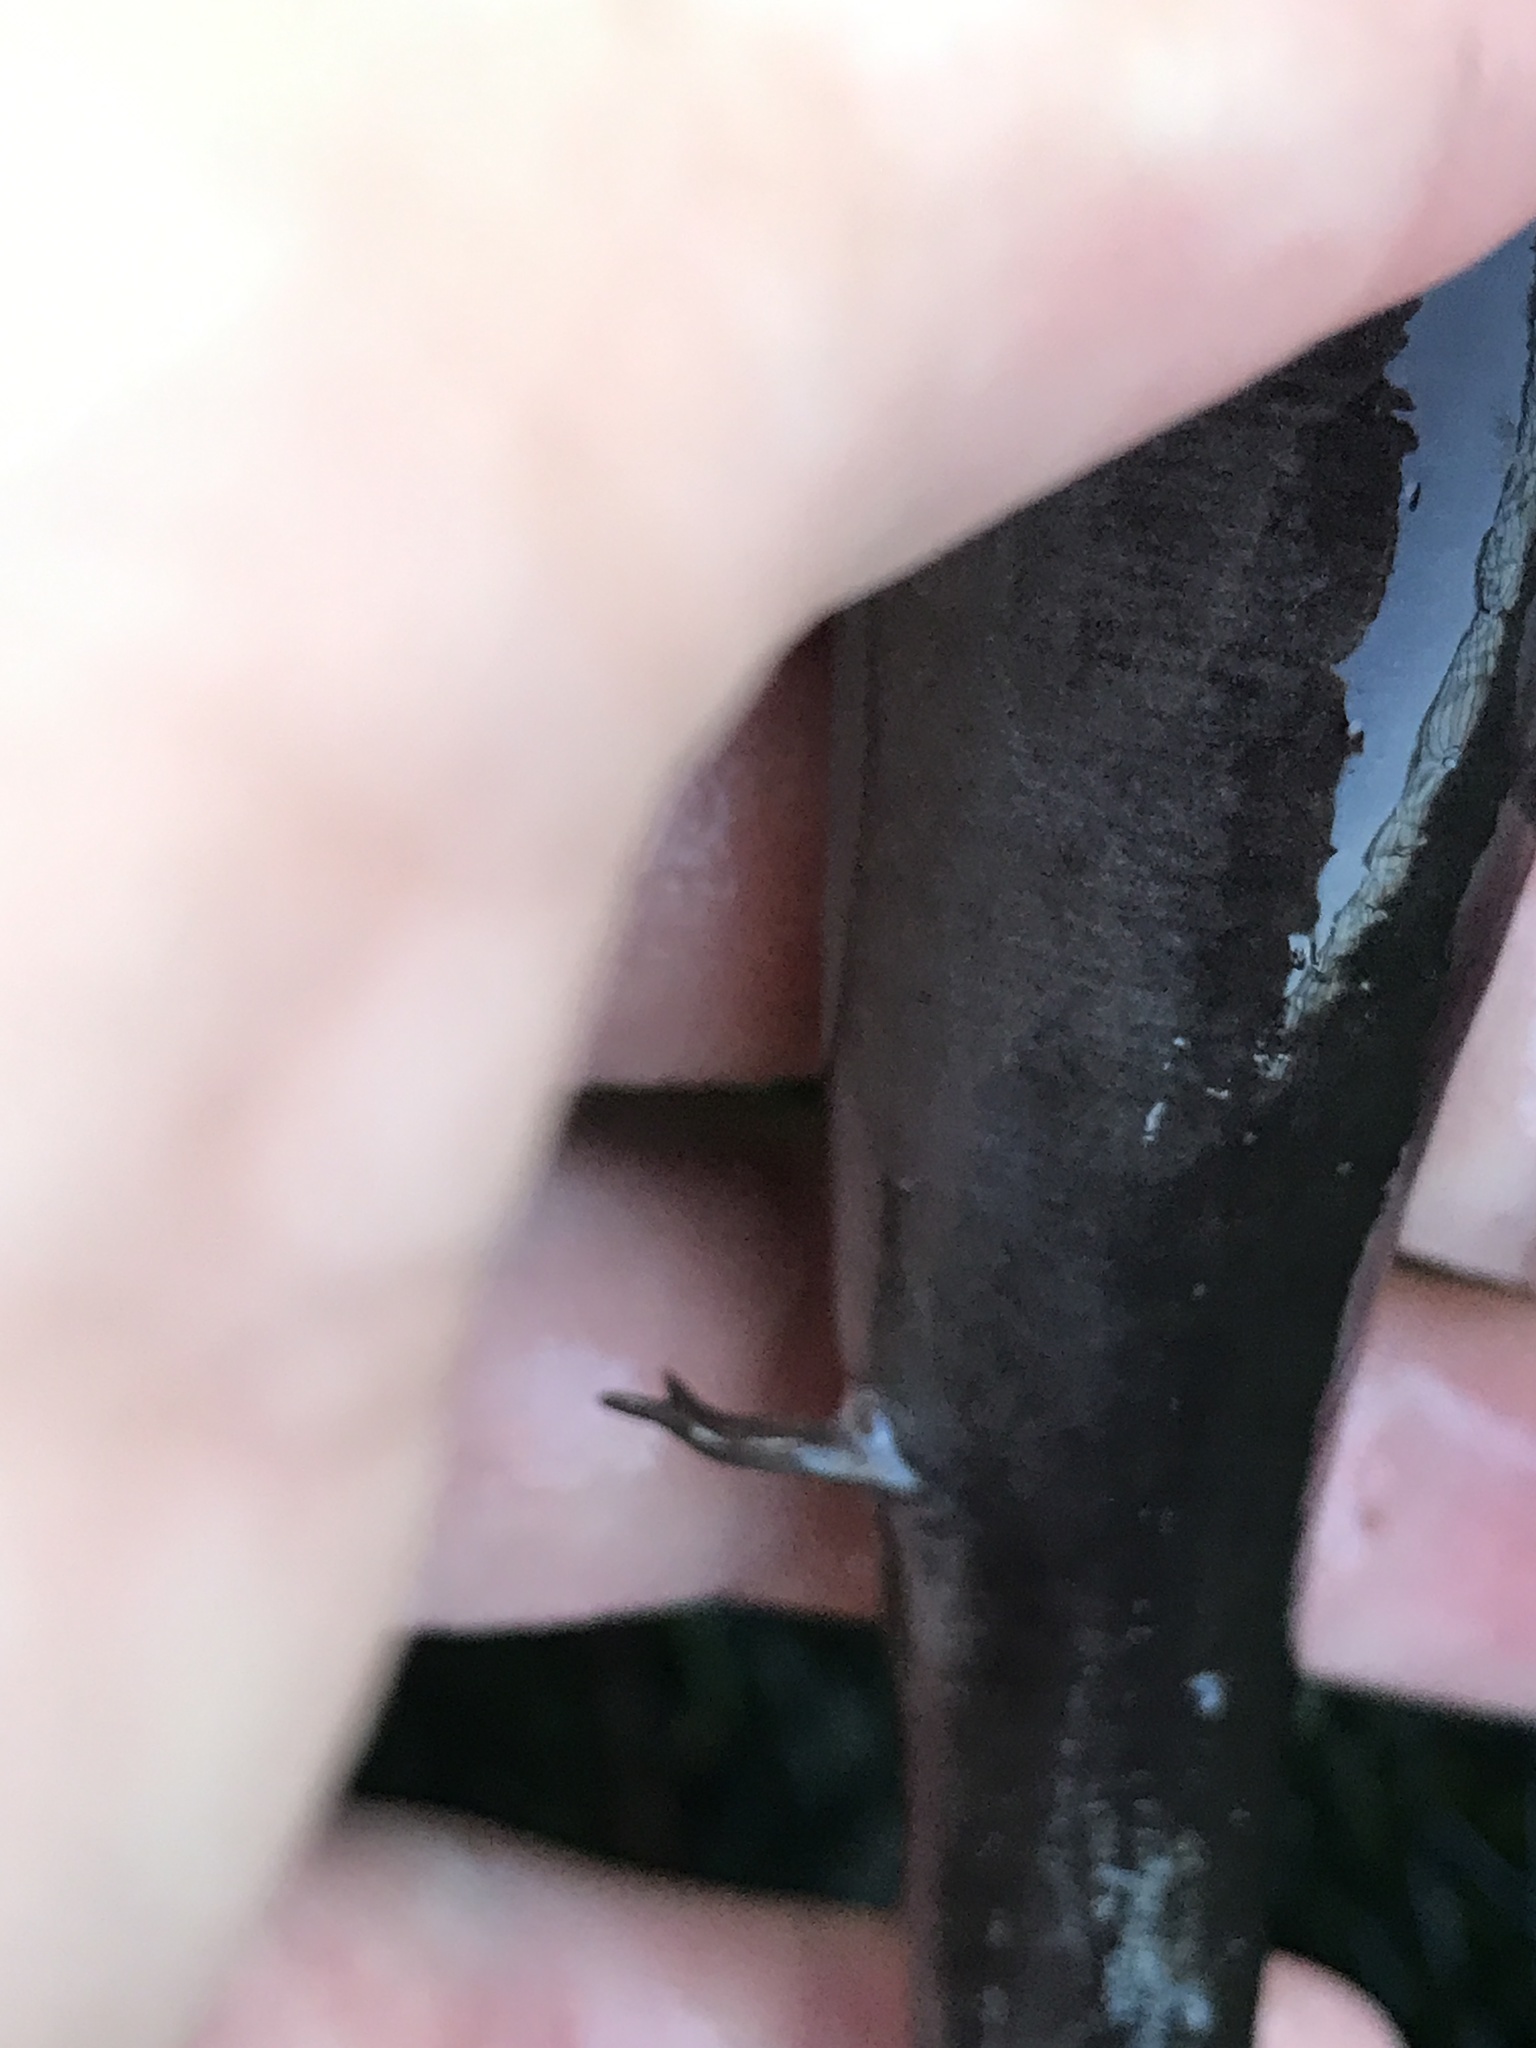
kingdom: Animalia
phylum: Chordata
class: Amphibia
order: Caudata
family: Amphiumidae
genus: Amphiuma
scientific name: Amphiuma means
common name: Two-toed amphiuma
